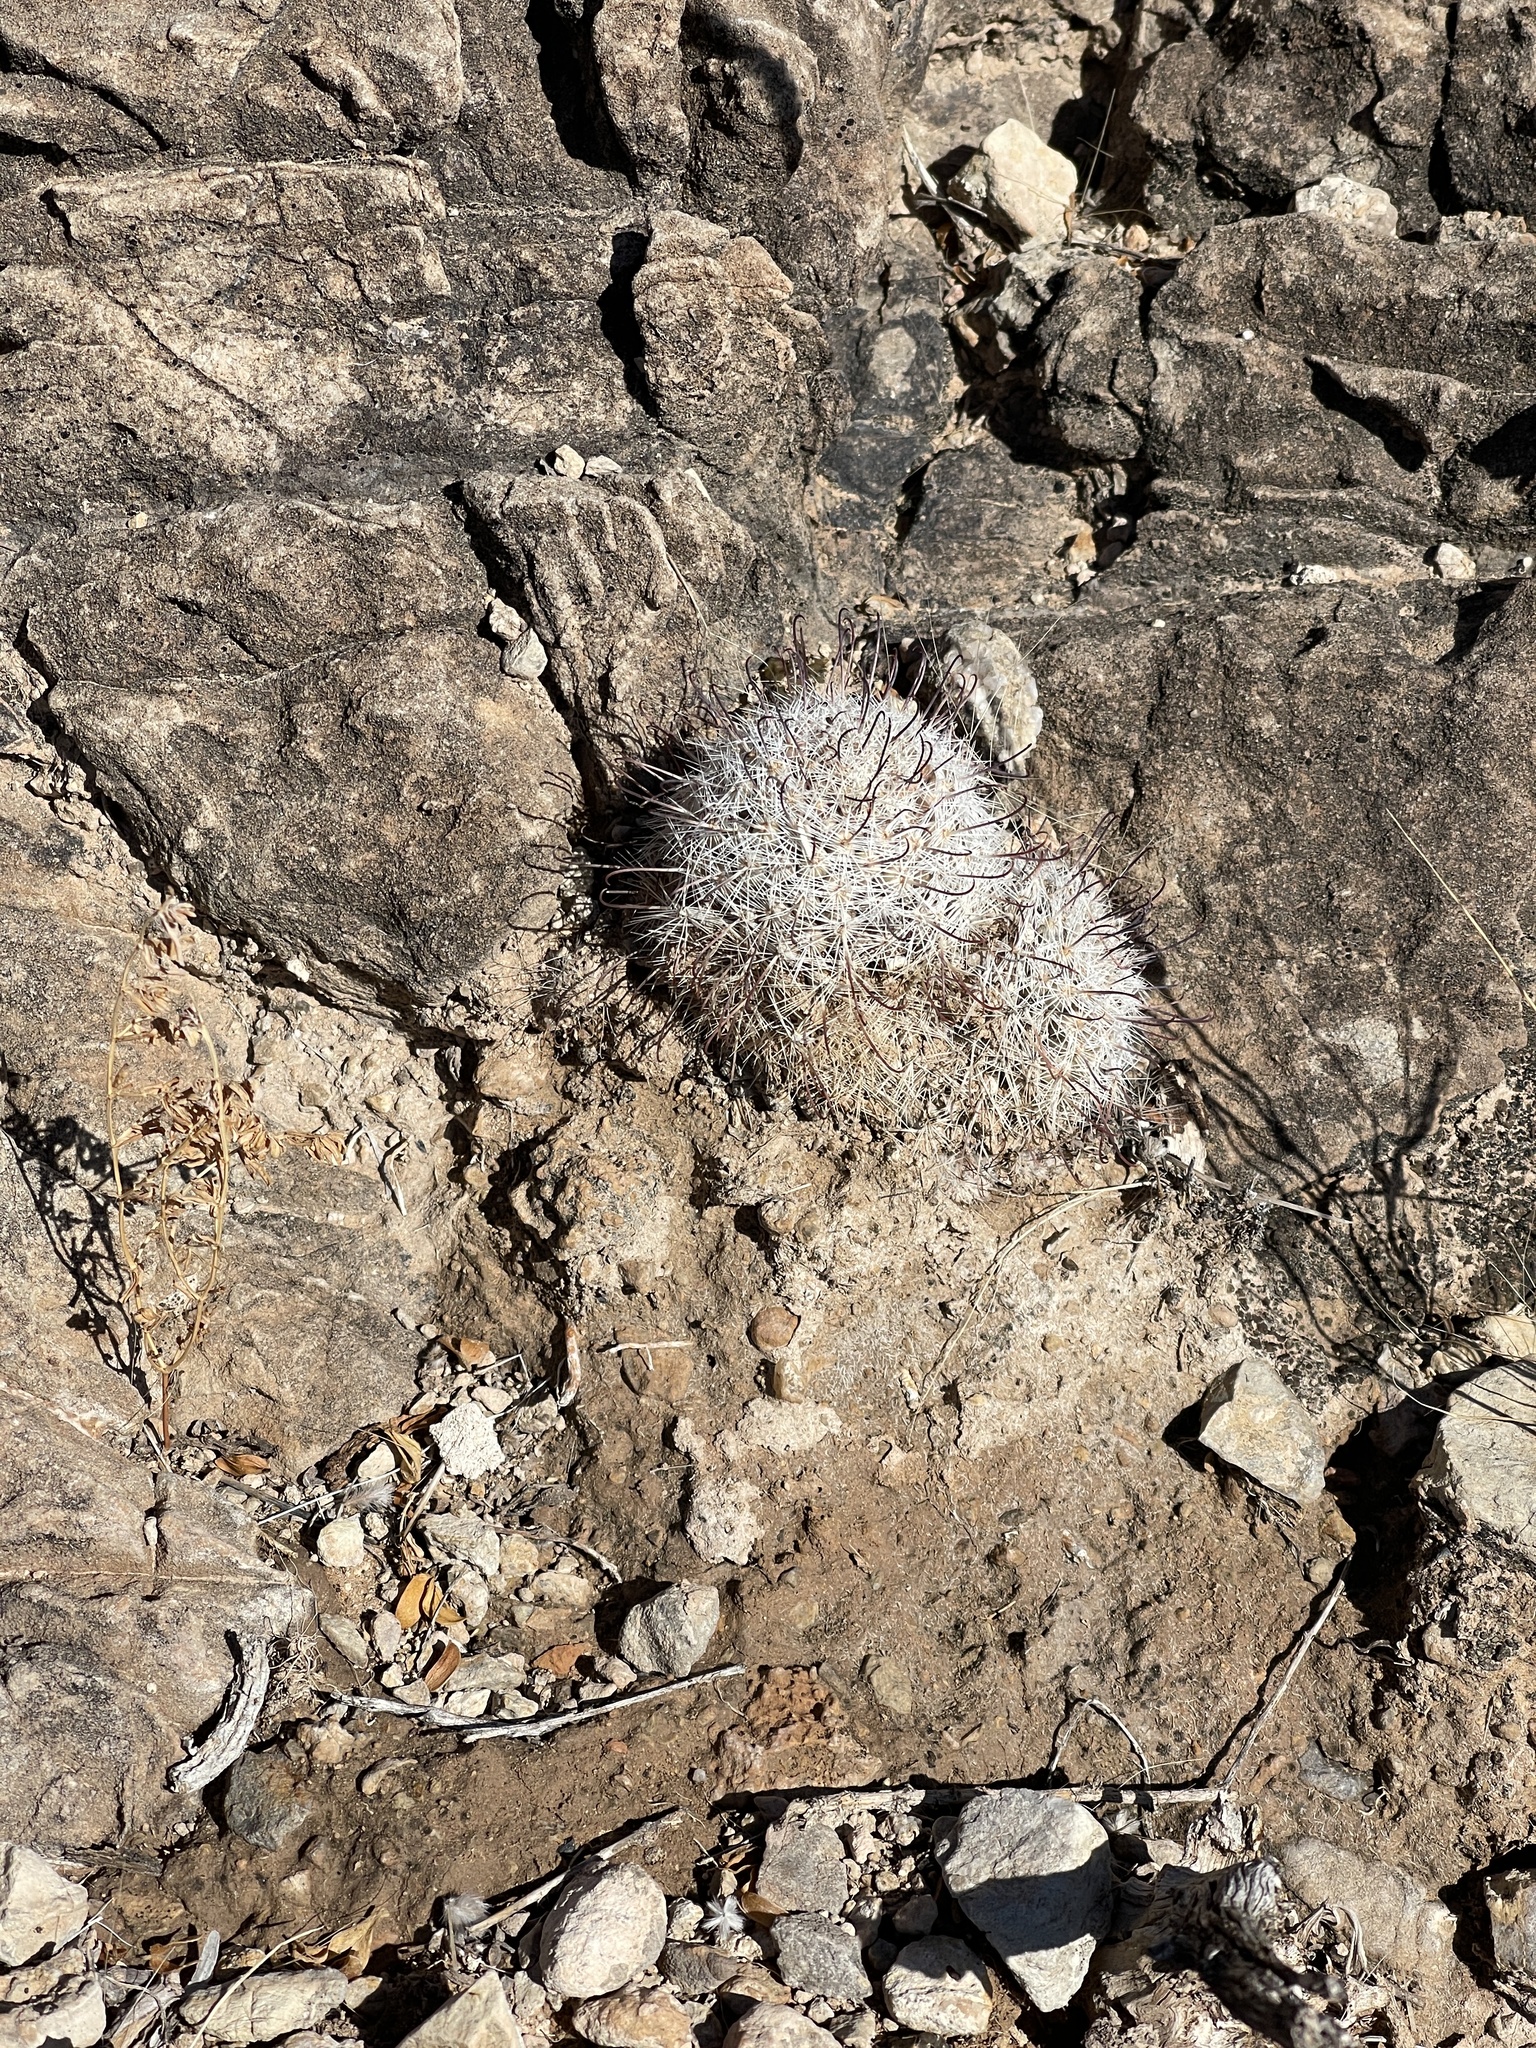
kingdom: Plantae
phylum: Tracheophyta
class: Magnoliopsida
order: Caryophyllales
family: Cactaceae
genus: Cochemiea
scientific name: Cochemiea grahamii
